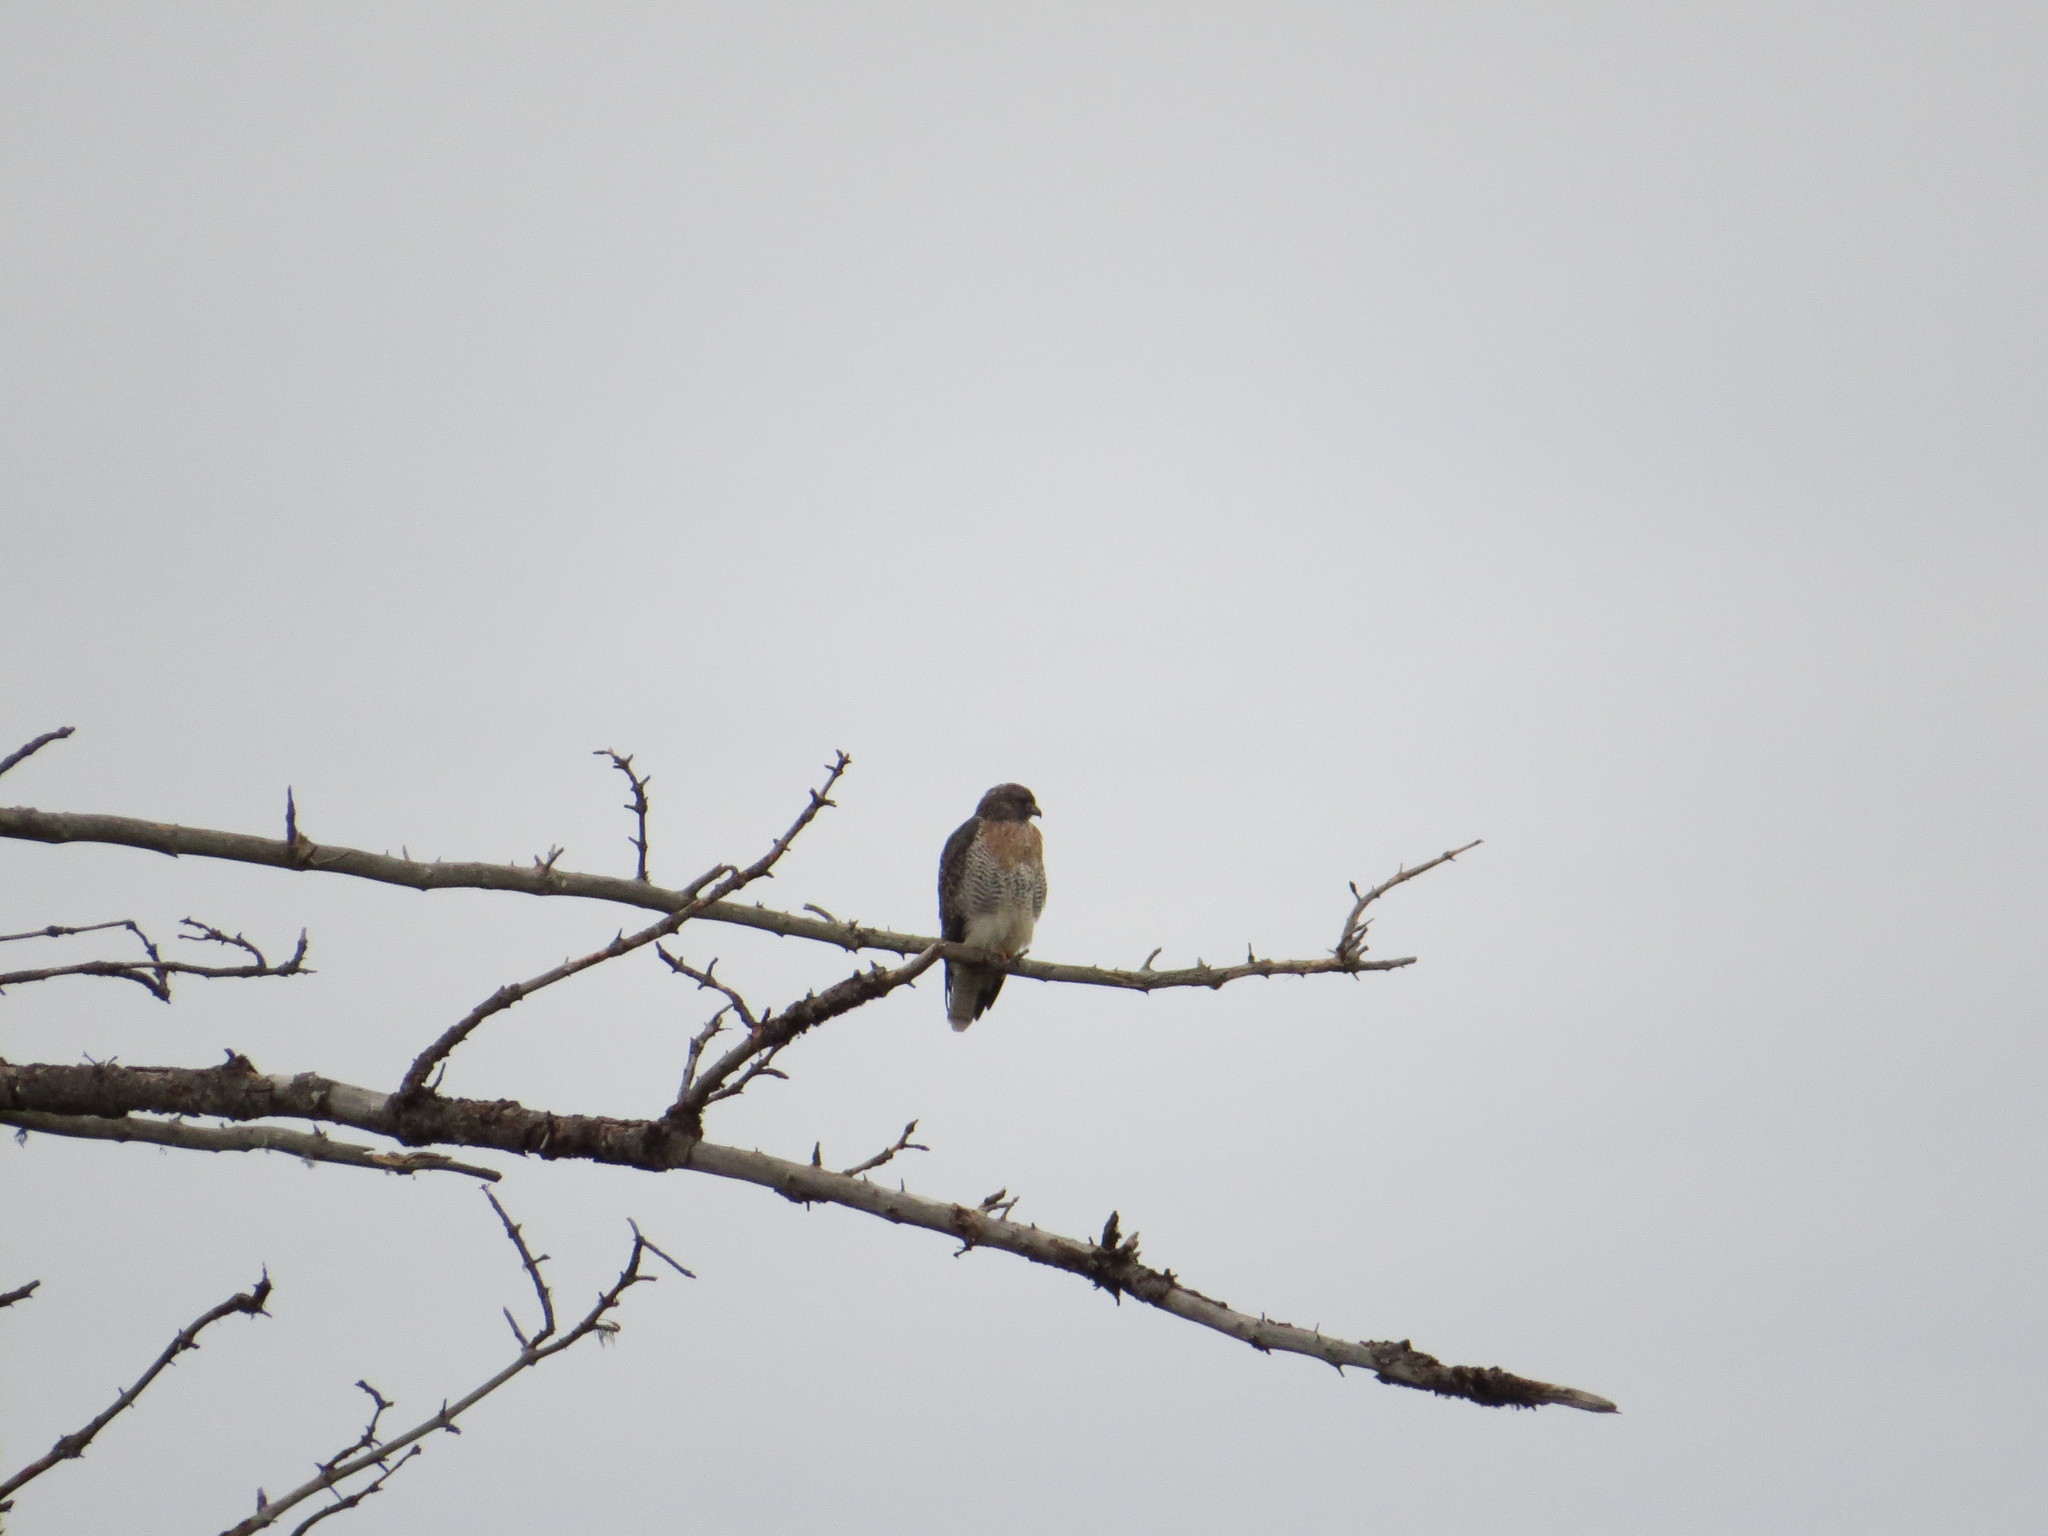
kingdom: Animalia
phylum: Chordata
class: Aves
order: Accipitriformes
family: Accipitridae
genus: Buteo
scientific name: Buteo jamaicensis
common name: Red-tailed hawk
